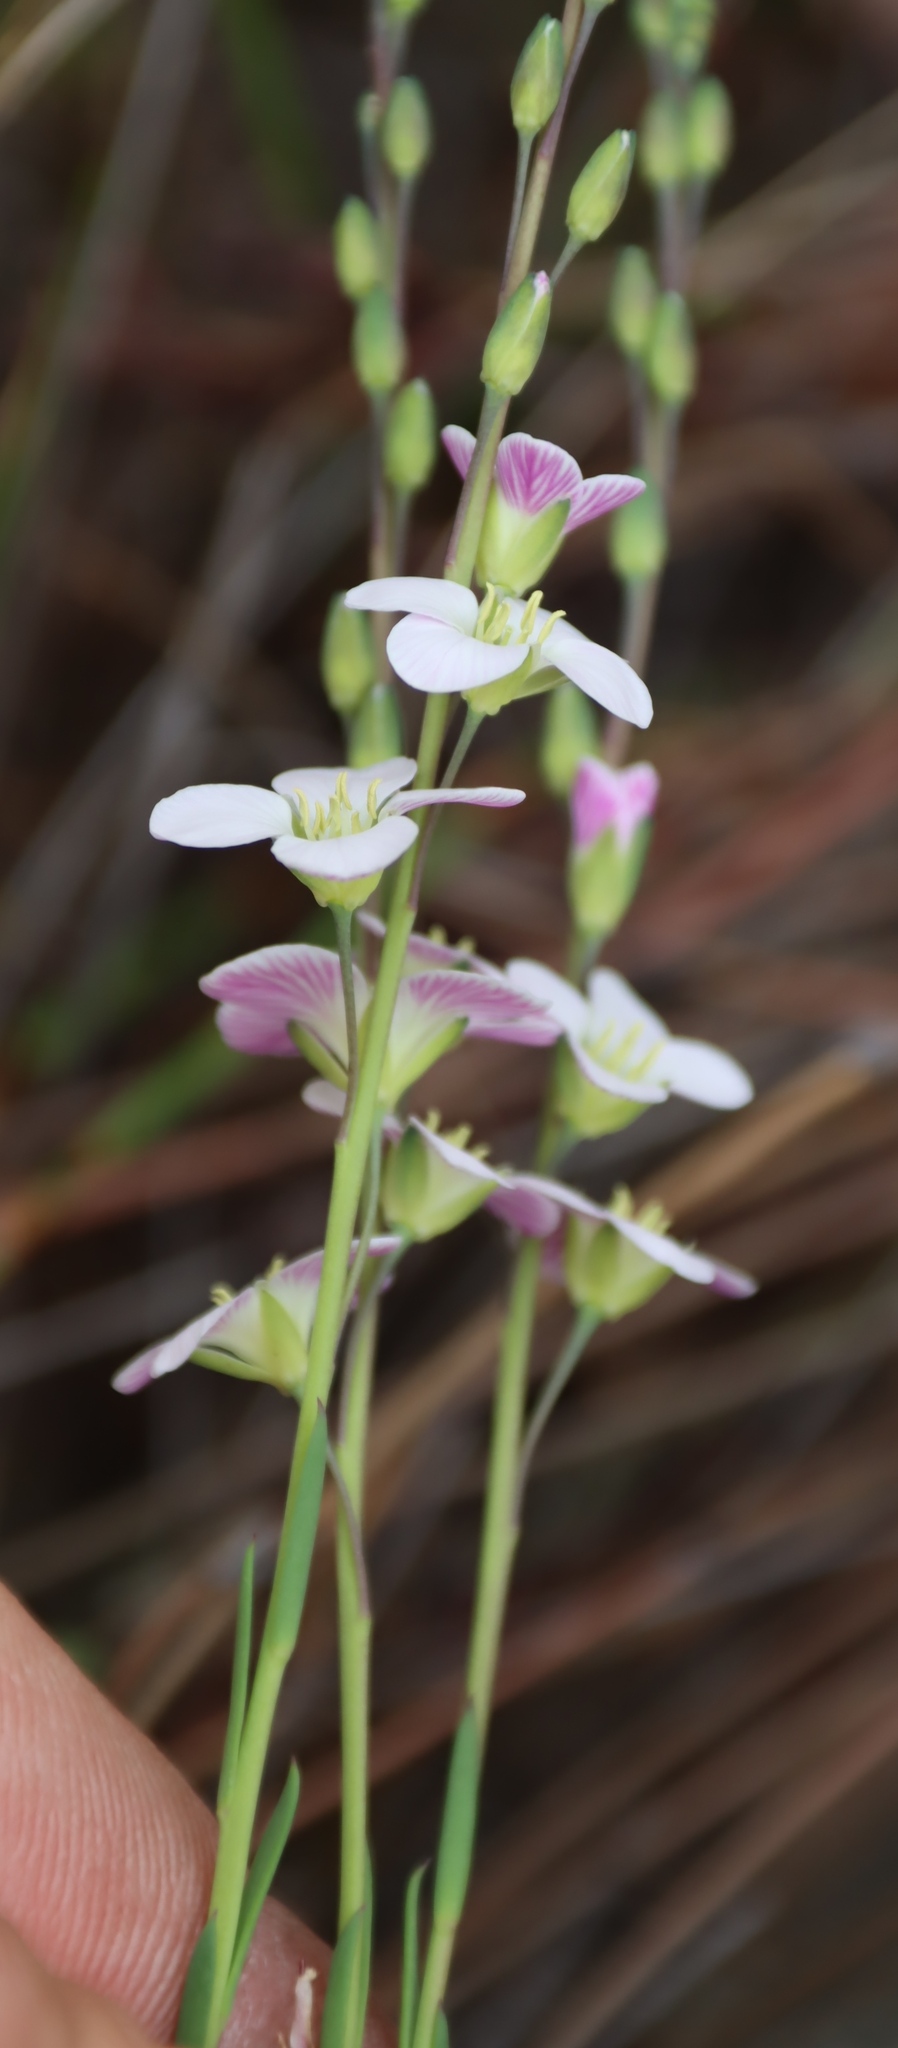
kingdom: Plantae
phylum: Tracheophyta
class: Magnoliopsida
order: Brassicales
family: Brassicaceae
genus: Heliophila
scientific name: Heliophila glauca
